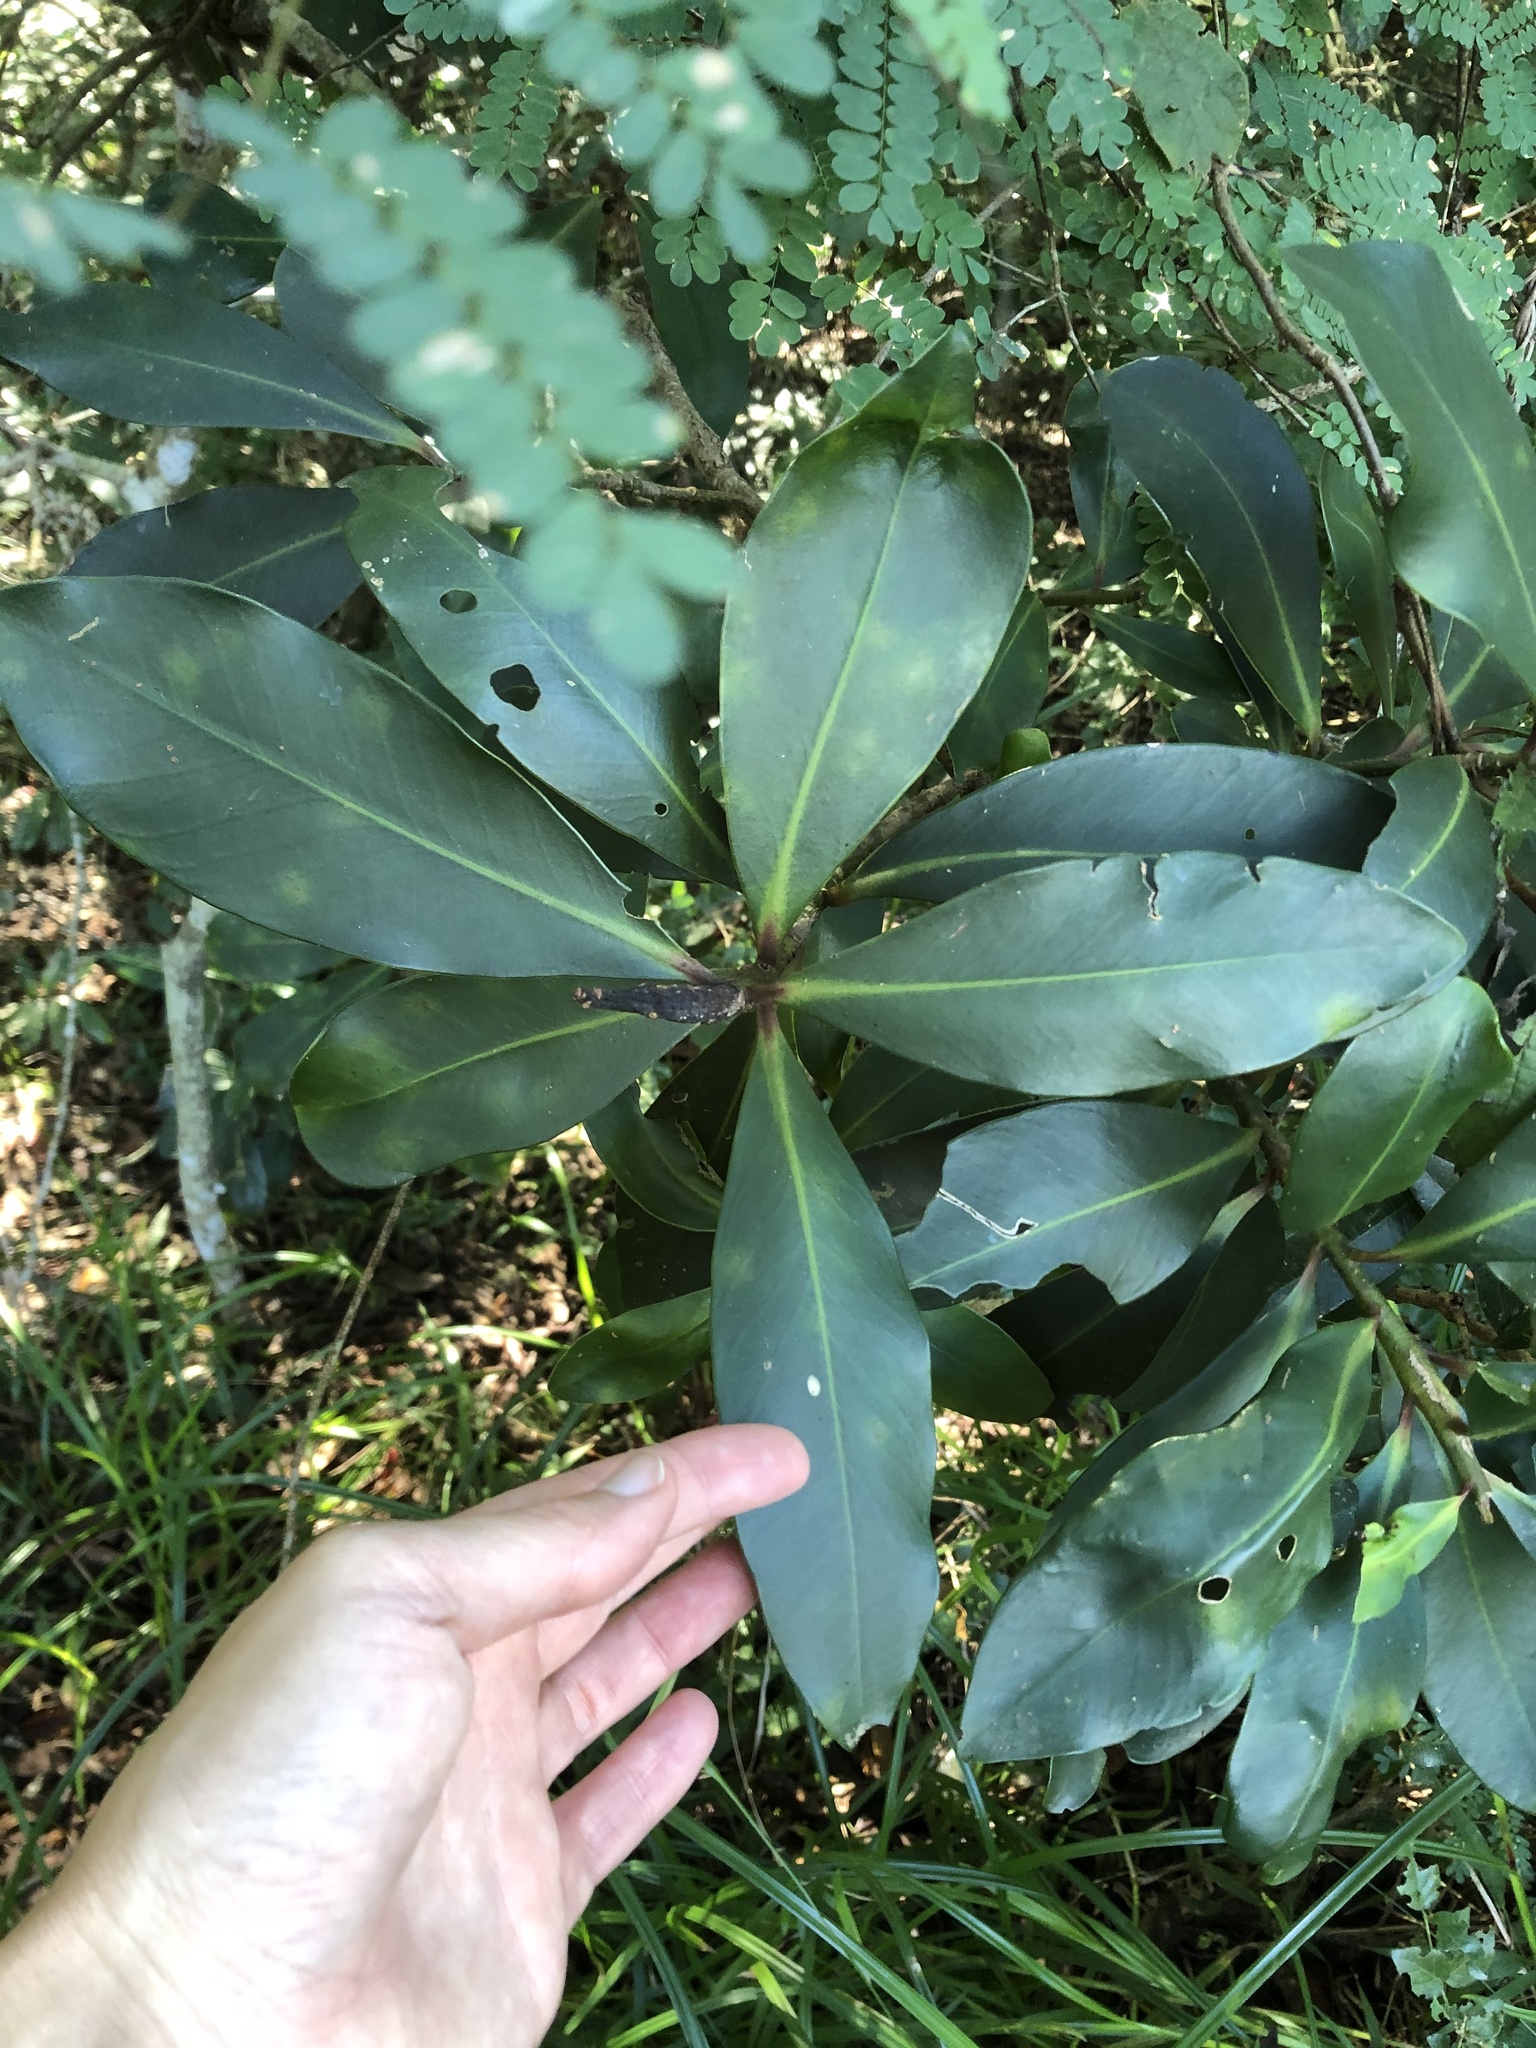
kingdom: Plantae
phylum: Tracheophyta
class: Magnoliopsida
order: Ericales
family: Primulaceae
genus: Myrsine
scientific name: Myrsine melanophloeos
